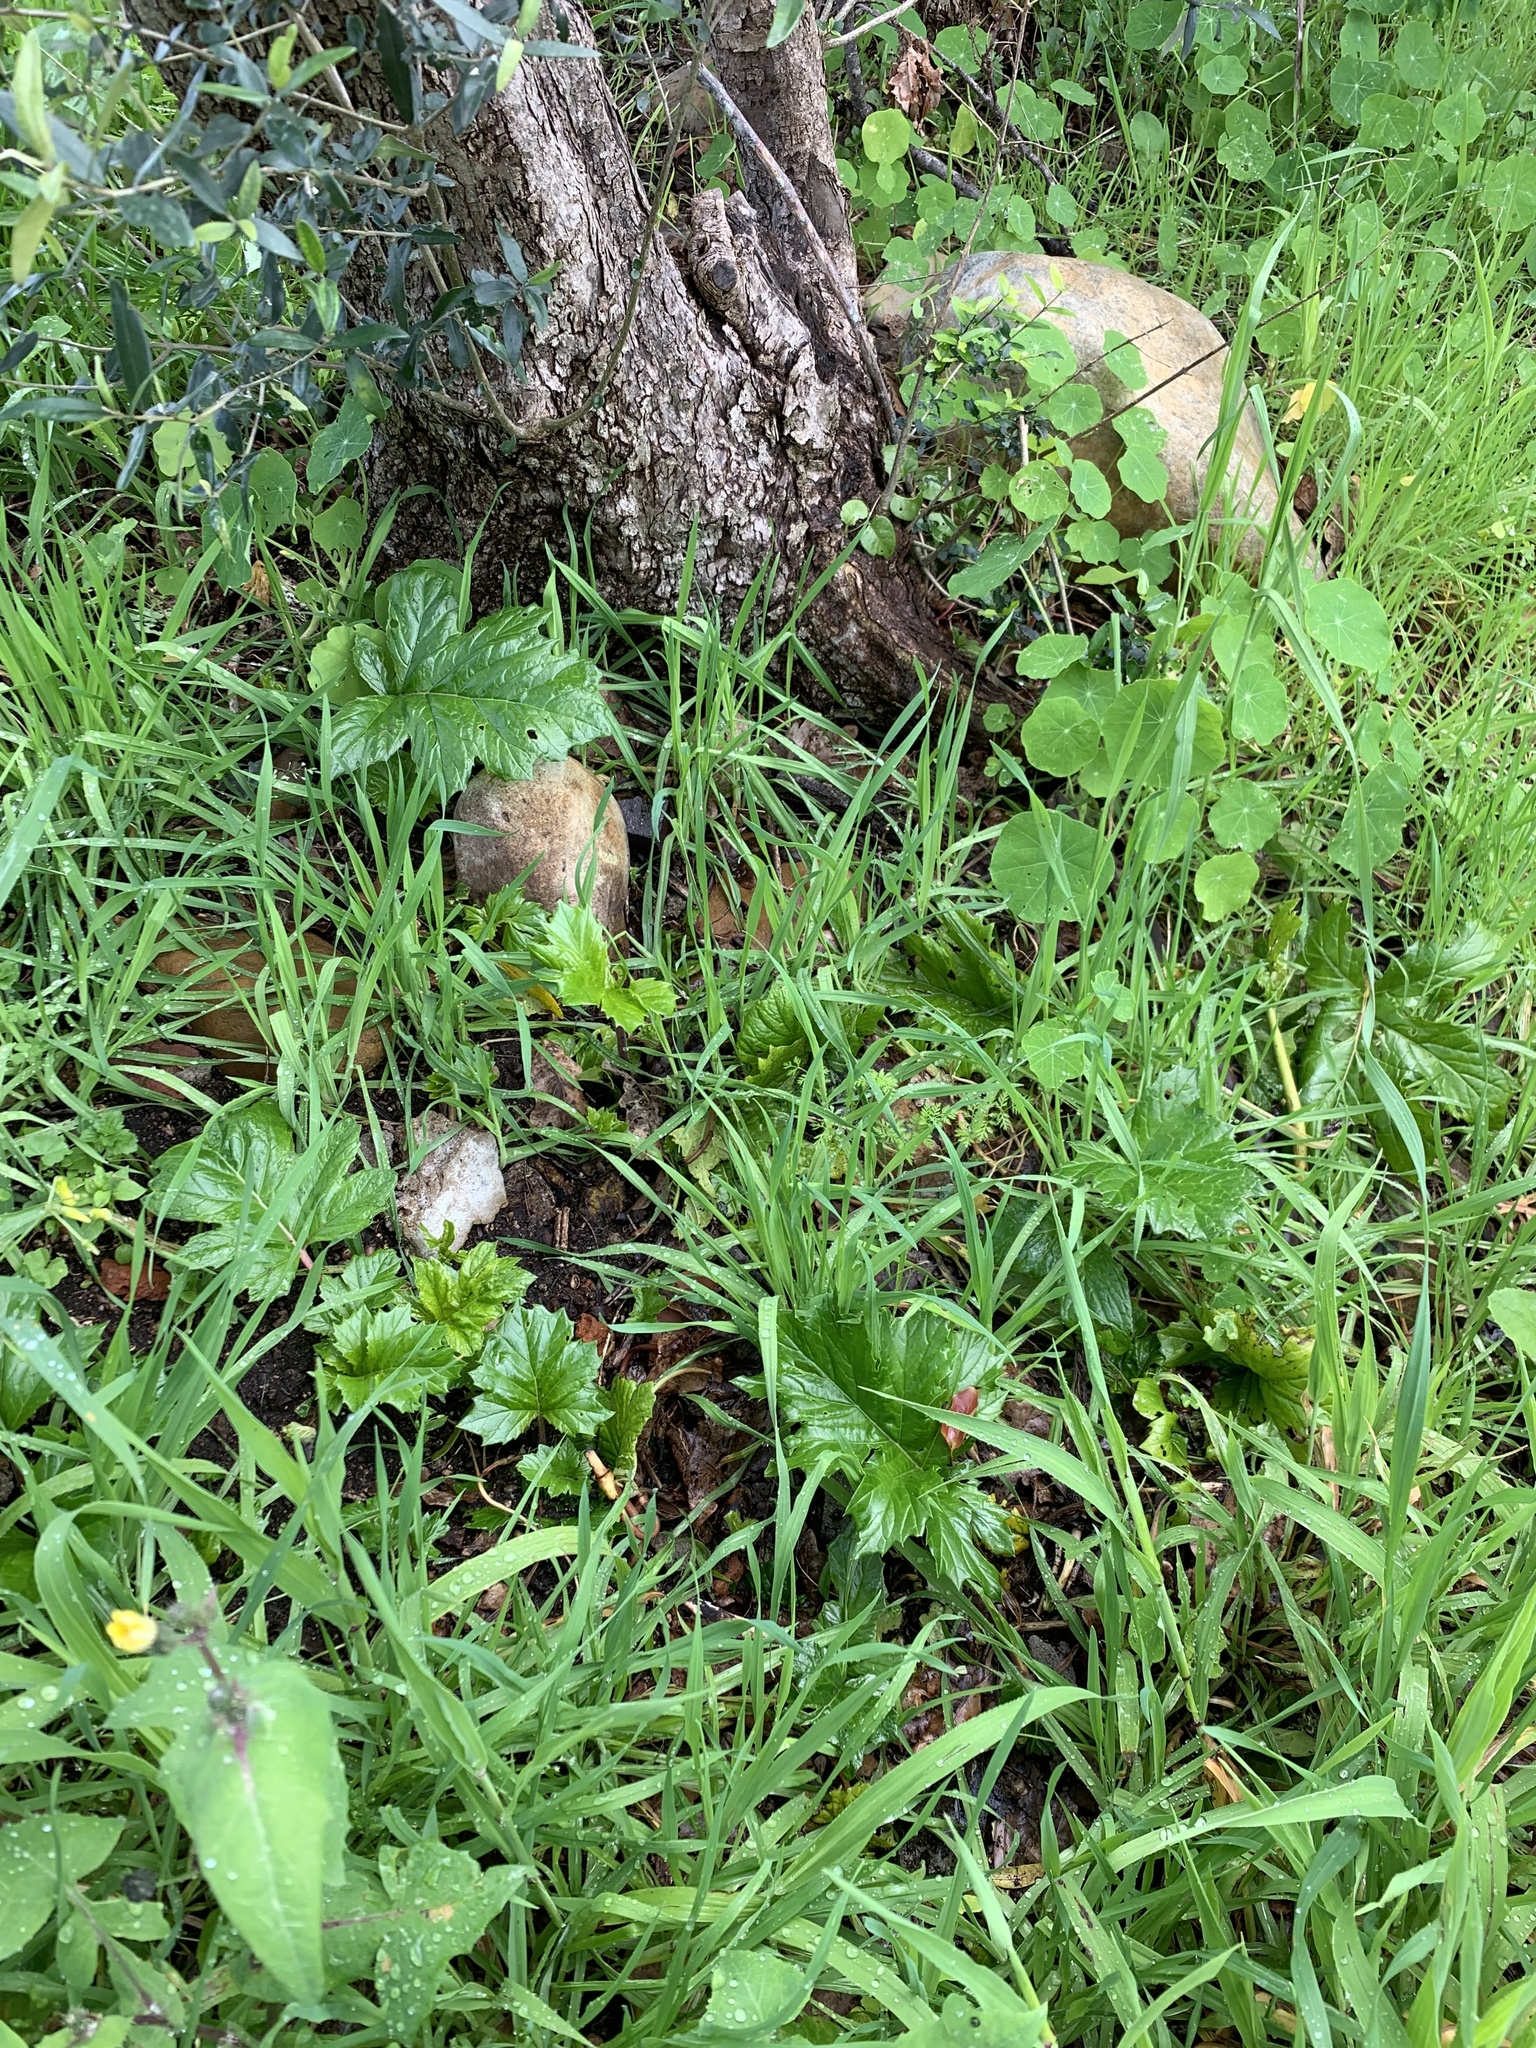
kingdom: Plantae
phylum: Tracheophyta
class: Magnoliopsida
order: Lamiales
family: Acanthaceae
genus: Acanthus
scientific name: Acanthus mollis
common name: Bear's-breech
